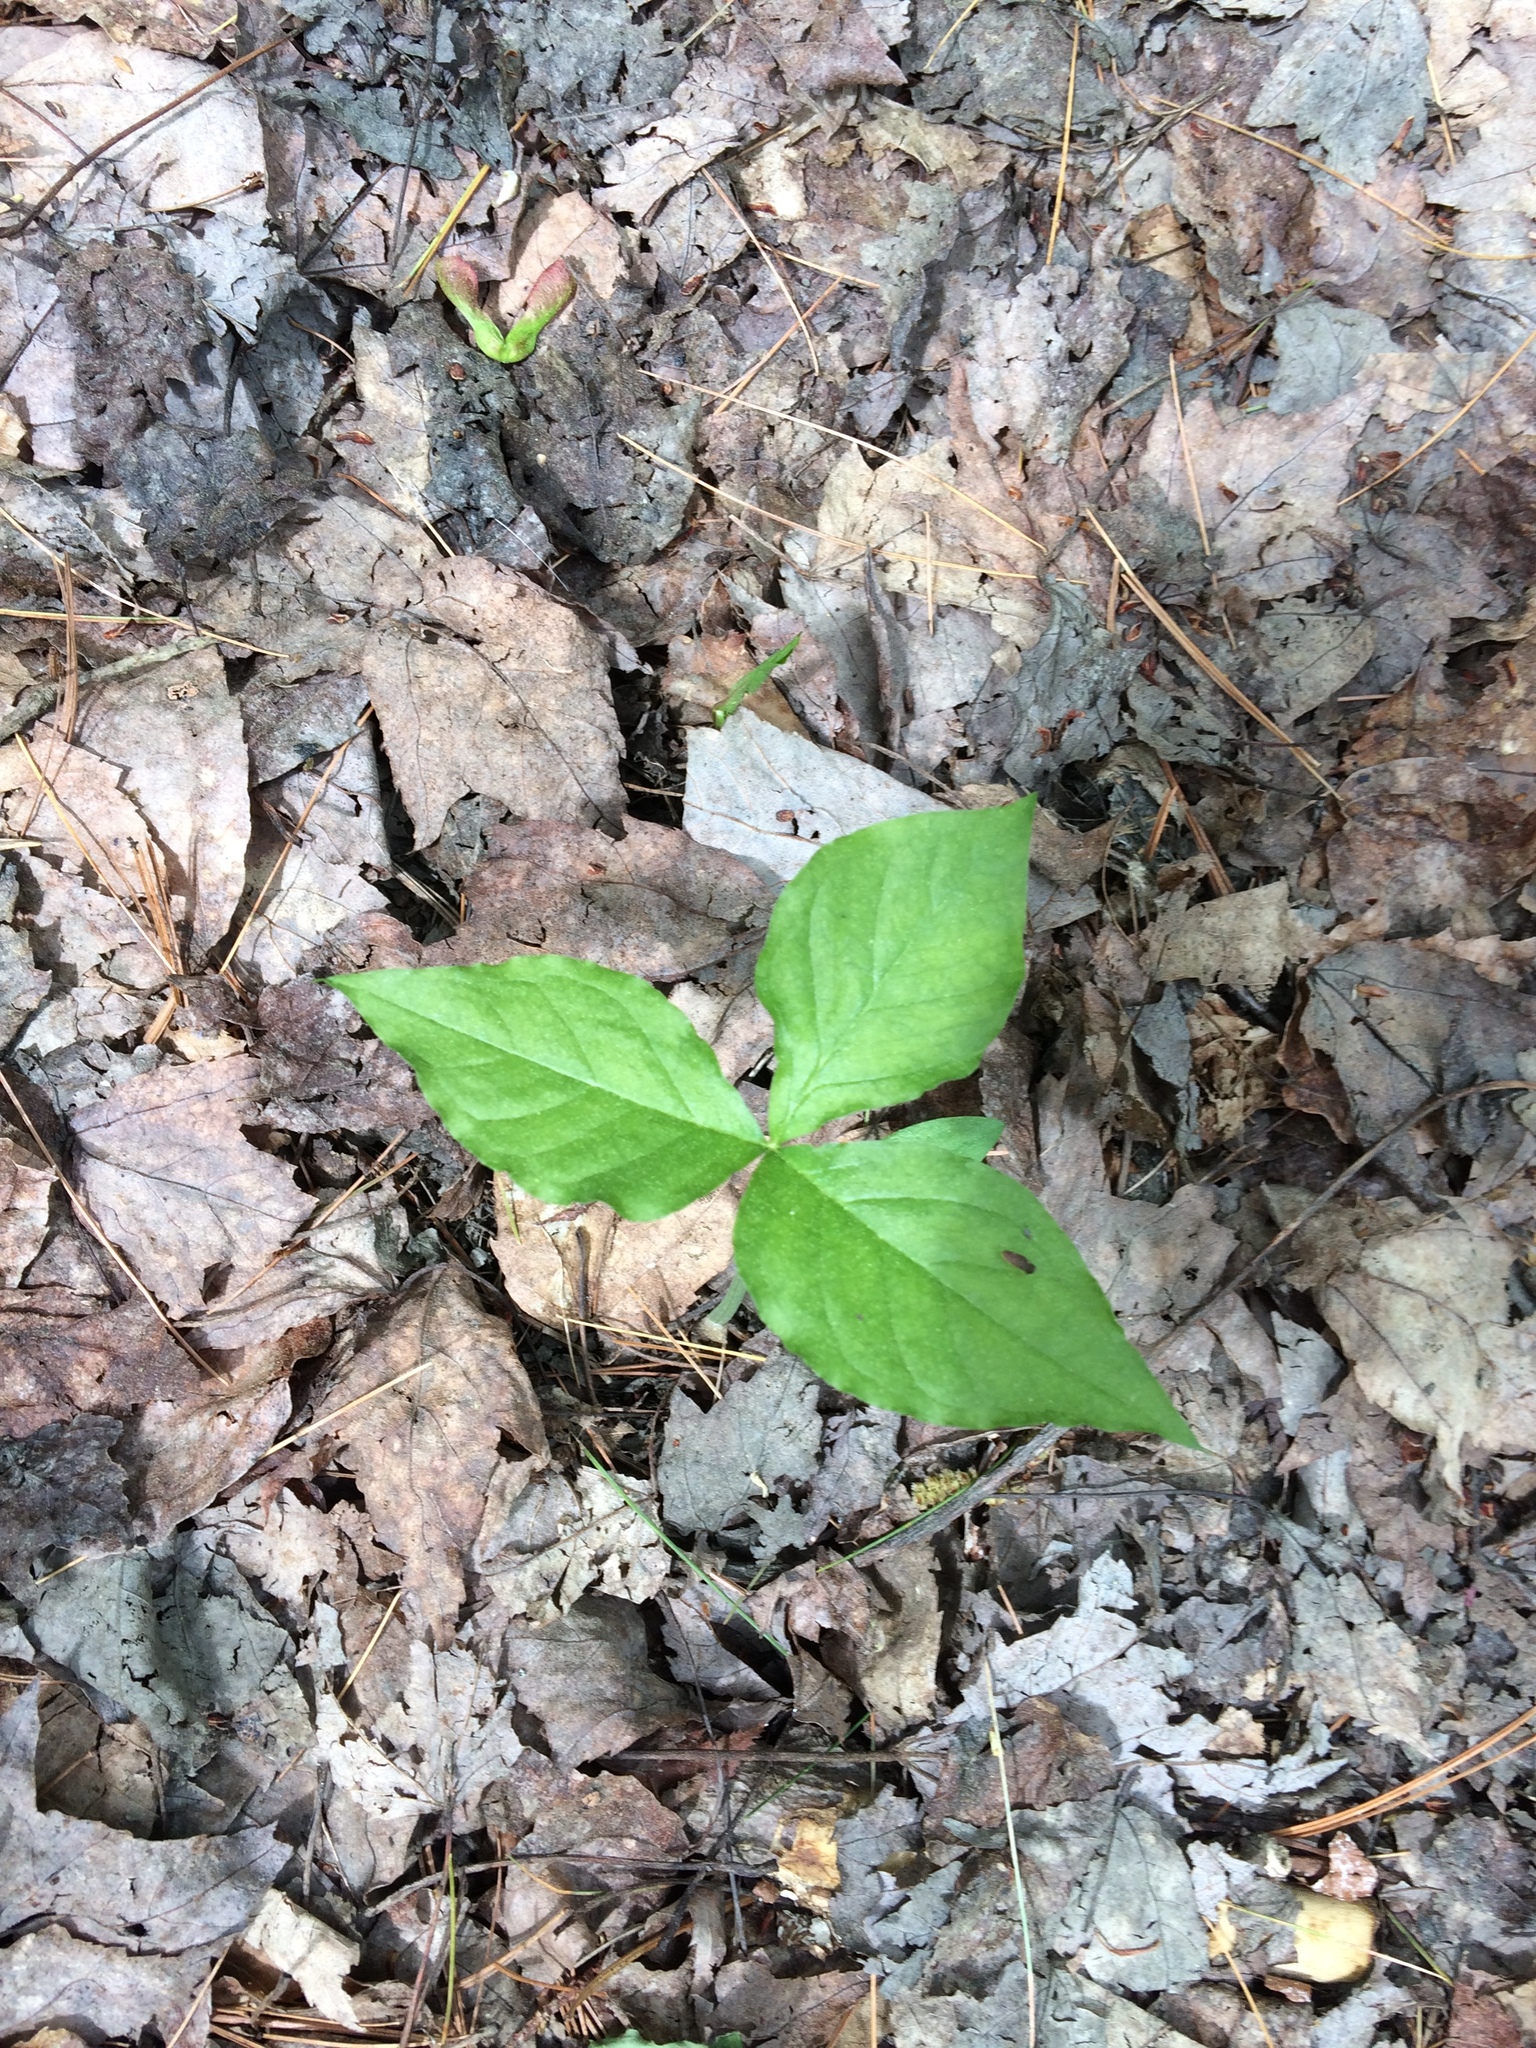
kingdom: Plantae
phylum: Tracheophyta
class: Liliopsida
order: Alismatales
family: Araceae
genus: Arisaema
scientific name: Arisaema triphyllum
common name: Jack-in-the-pulpit
